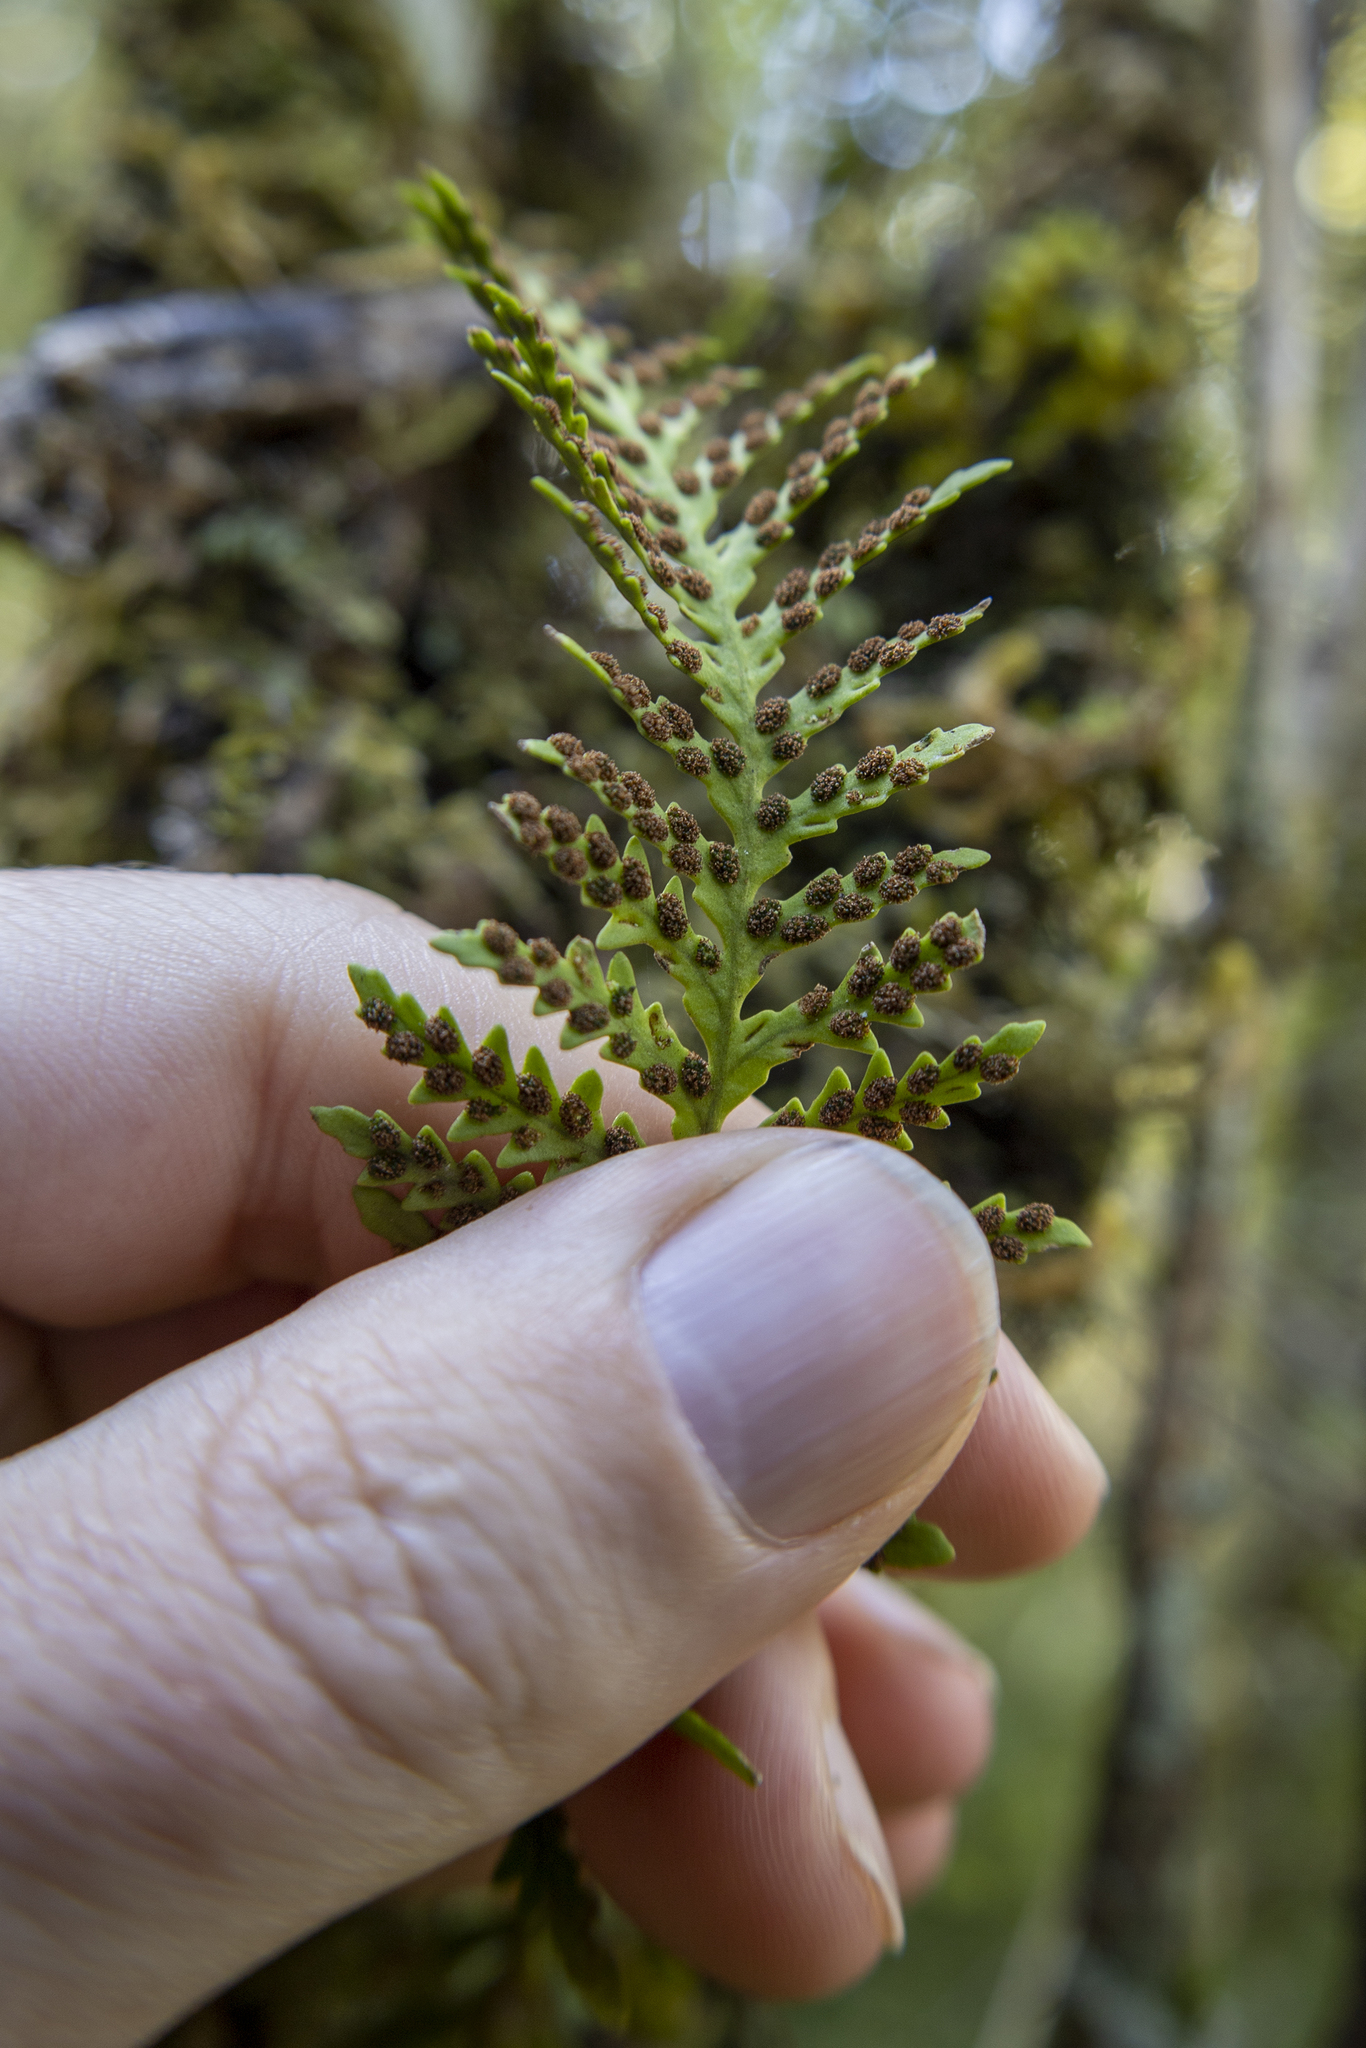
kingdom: Plantae
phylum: Tracheophyta
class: Polypodiopsida
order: Polypodiales
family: Polypodiaceae
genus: Notogrammitis
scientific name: Notogrammitis heterophylla
